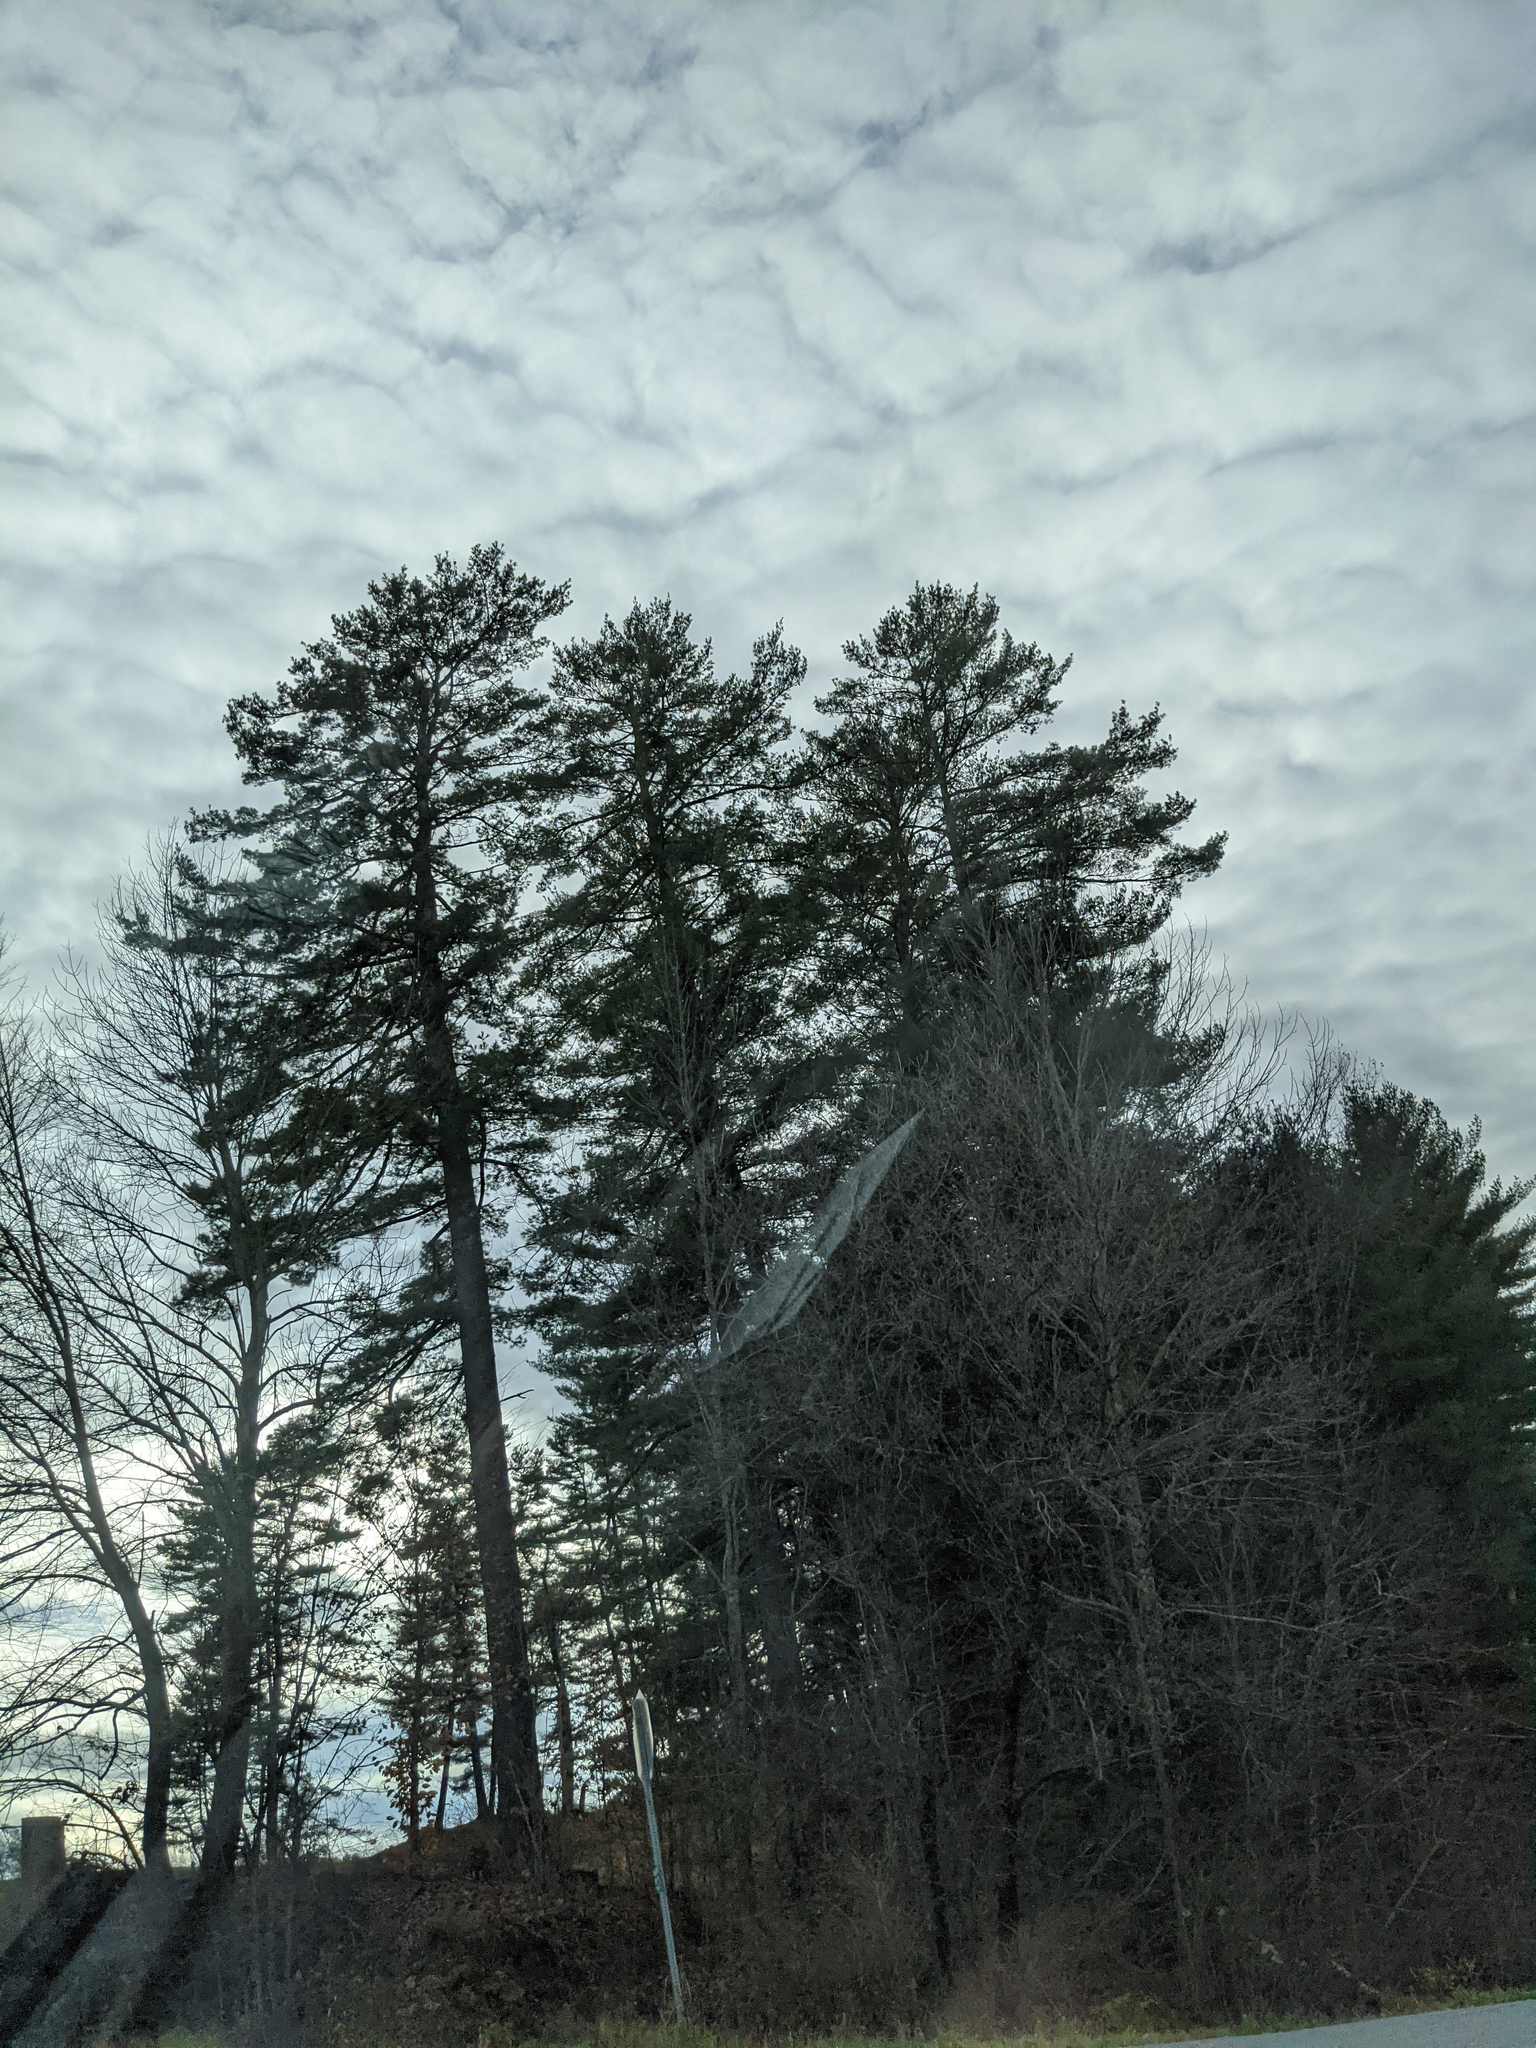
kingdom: Plantae
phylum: Tracheophyta
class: Pinopsida
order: Pinales
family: Pinaceae
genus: Pinus
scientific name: Pinus strobus
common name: Weymouth pine
